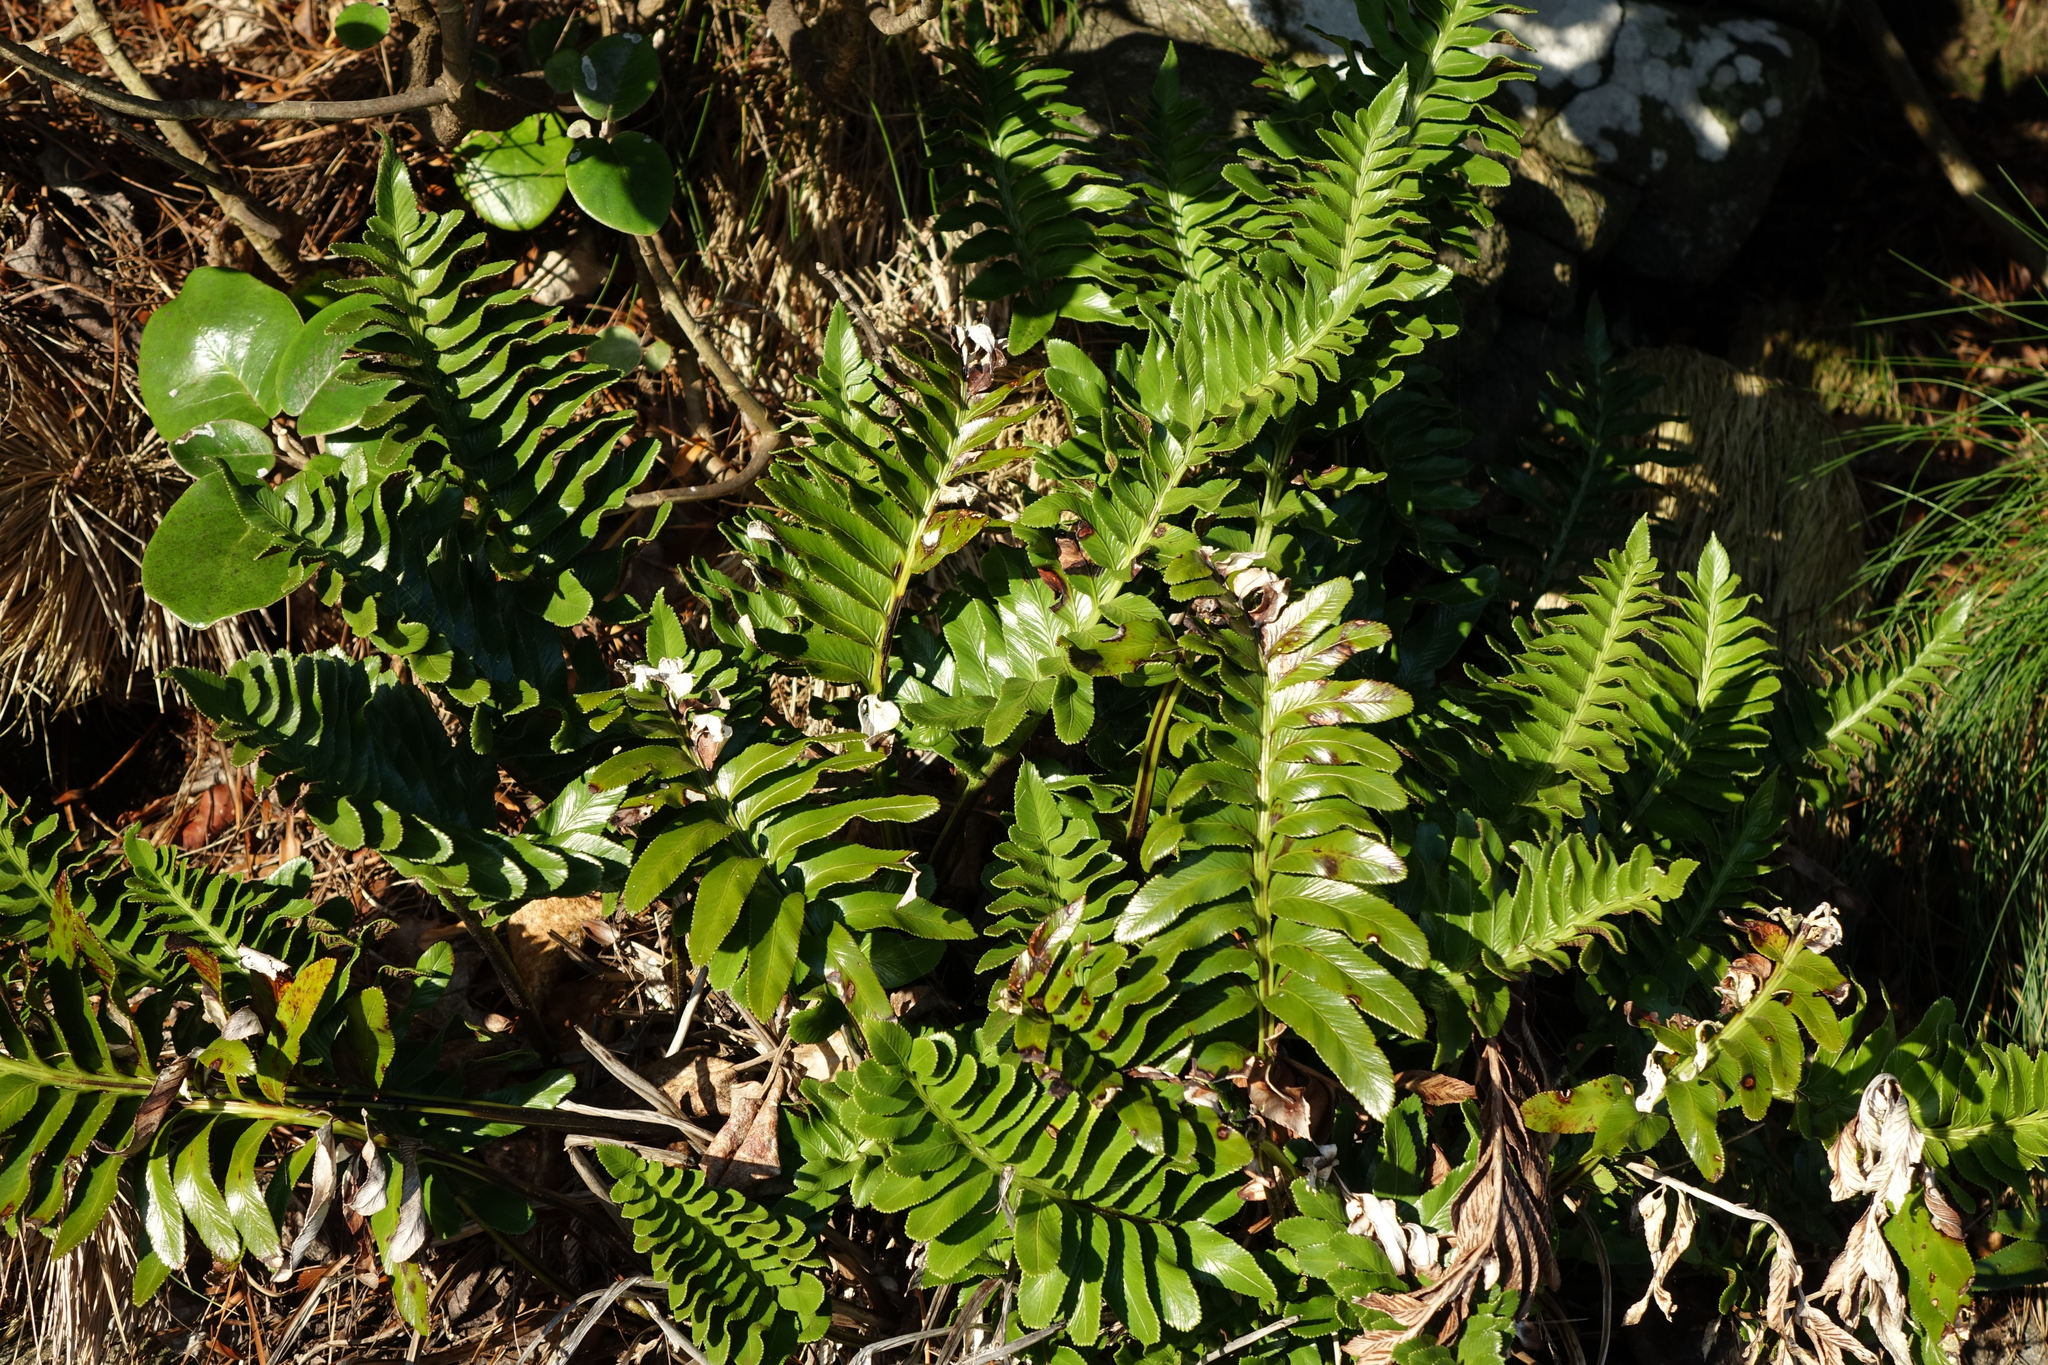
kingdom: Plantae
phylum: Tracheophyta
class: Polypodiopsida
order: Polypodiales
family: Aspleniaceae
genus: Asplenium
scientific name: Asplenium obtusatum
